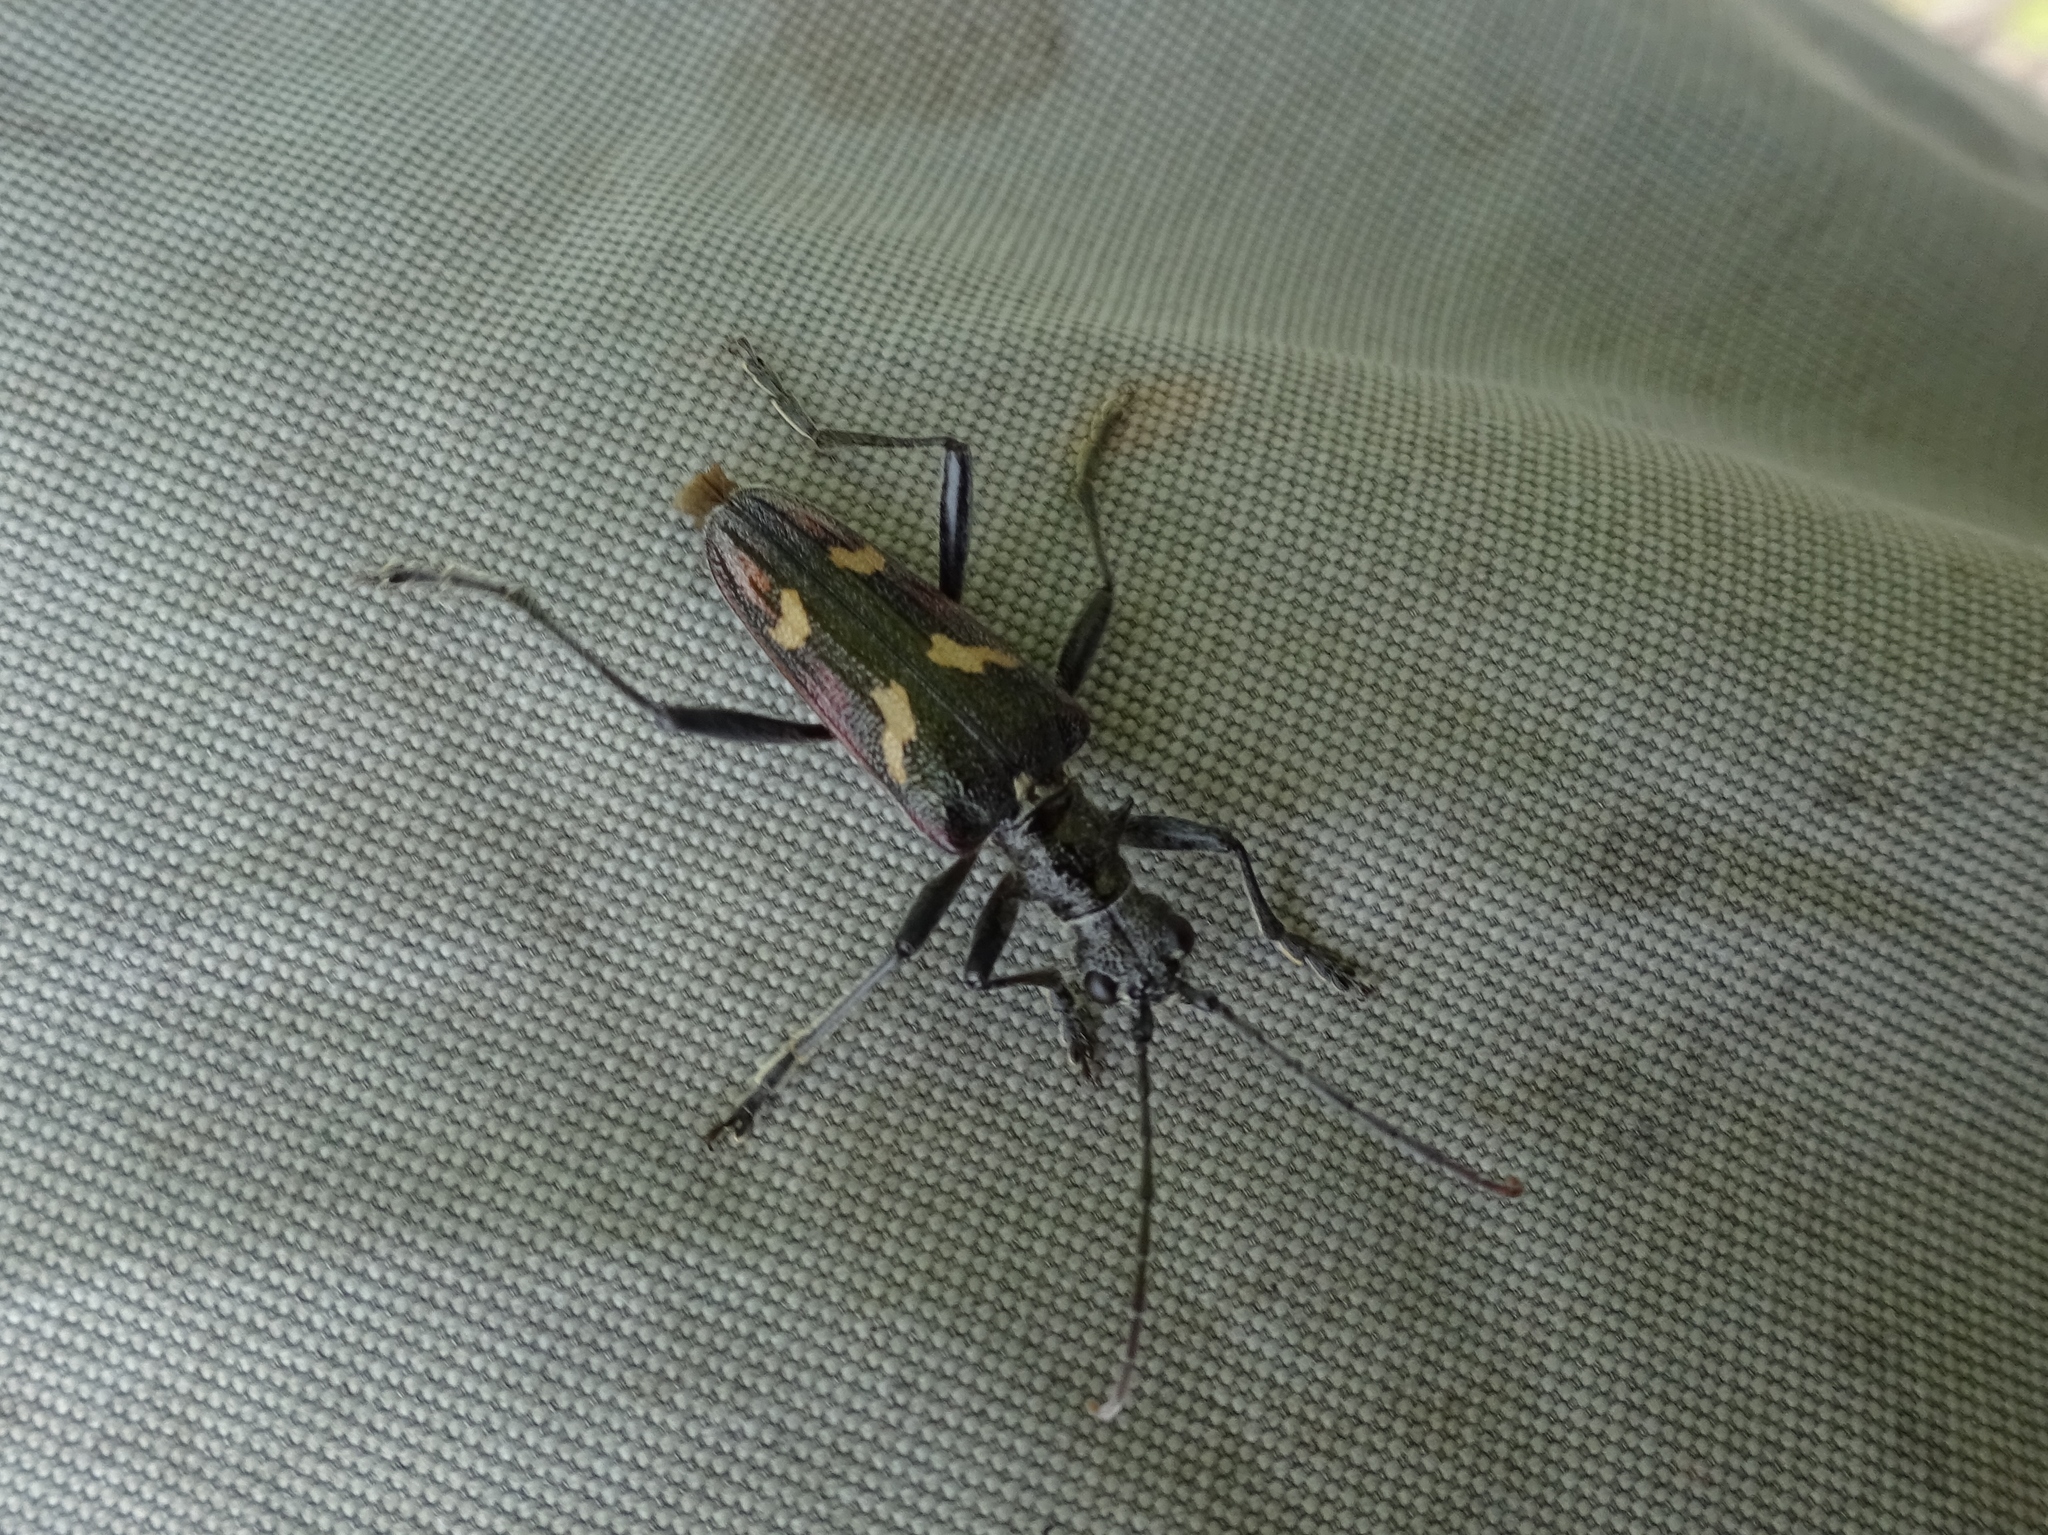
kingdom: Animalia
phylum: Arthropoda
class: Insecta
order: Coleoptera
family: Cerambycidae
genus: Rhagium
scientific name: Rhagium bifasciatum
